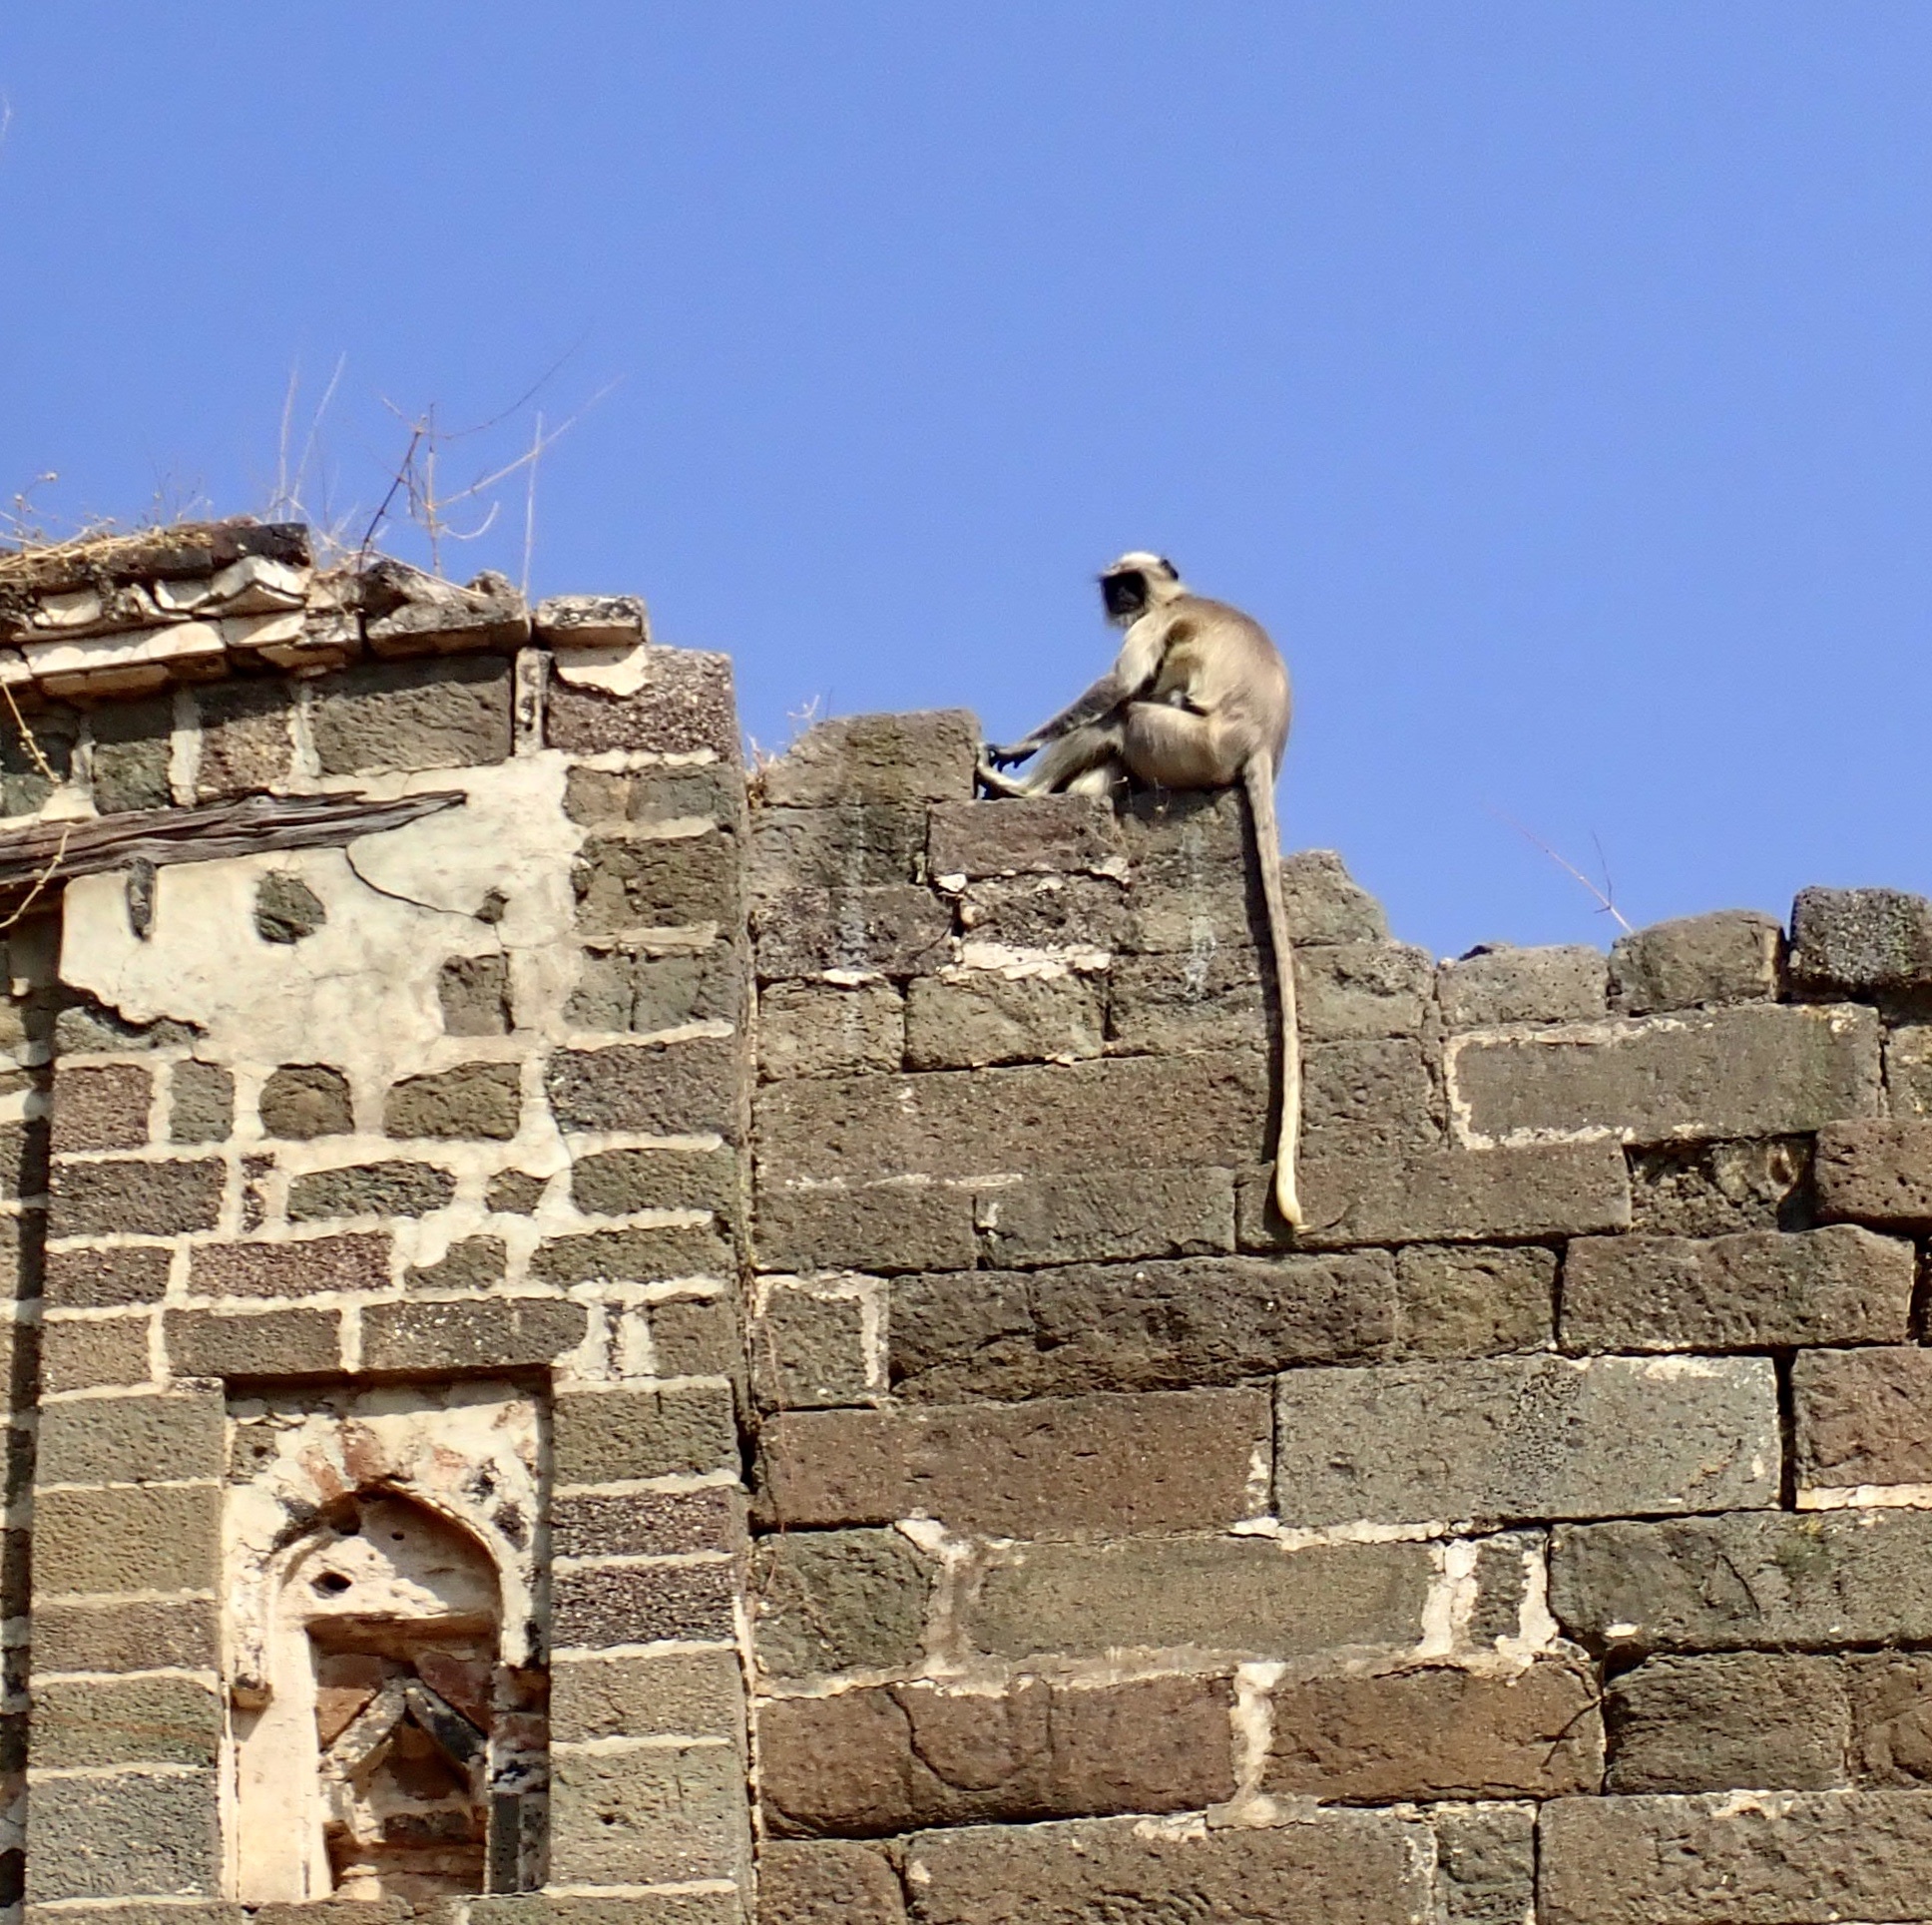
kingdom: Animalia
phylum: Chordata
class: Mammalia
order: Primates
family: Cercopithecidae
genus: Semnopithecus
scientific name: Semnopithecus hypoleucos
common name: Black-footed gray langur
